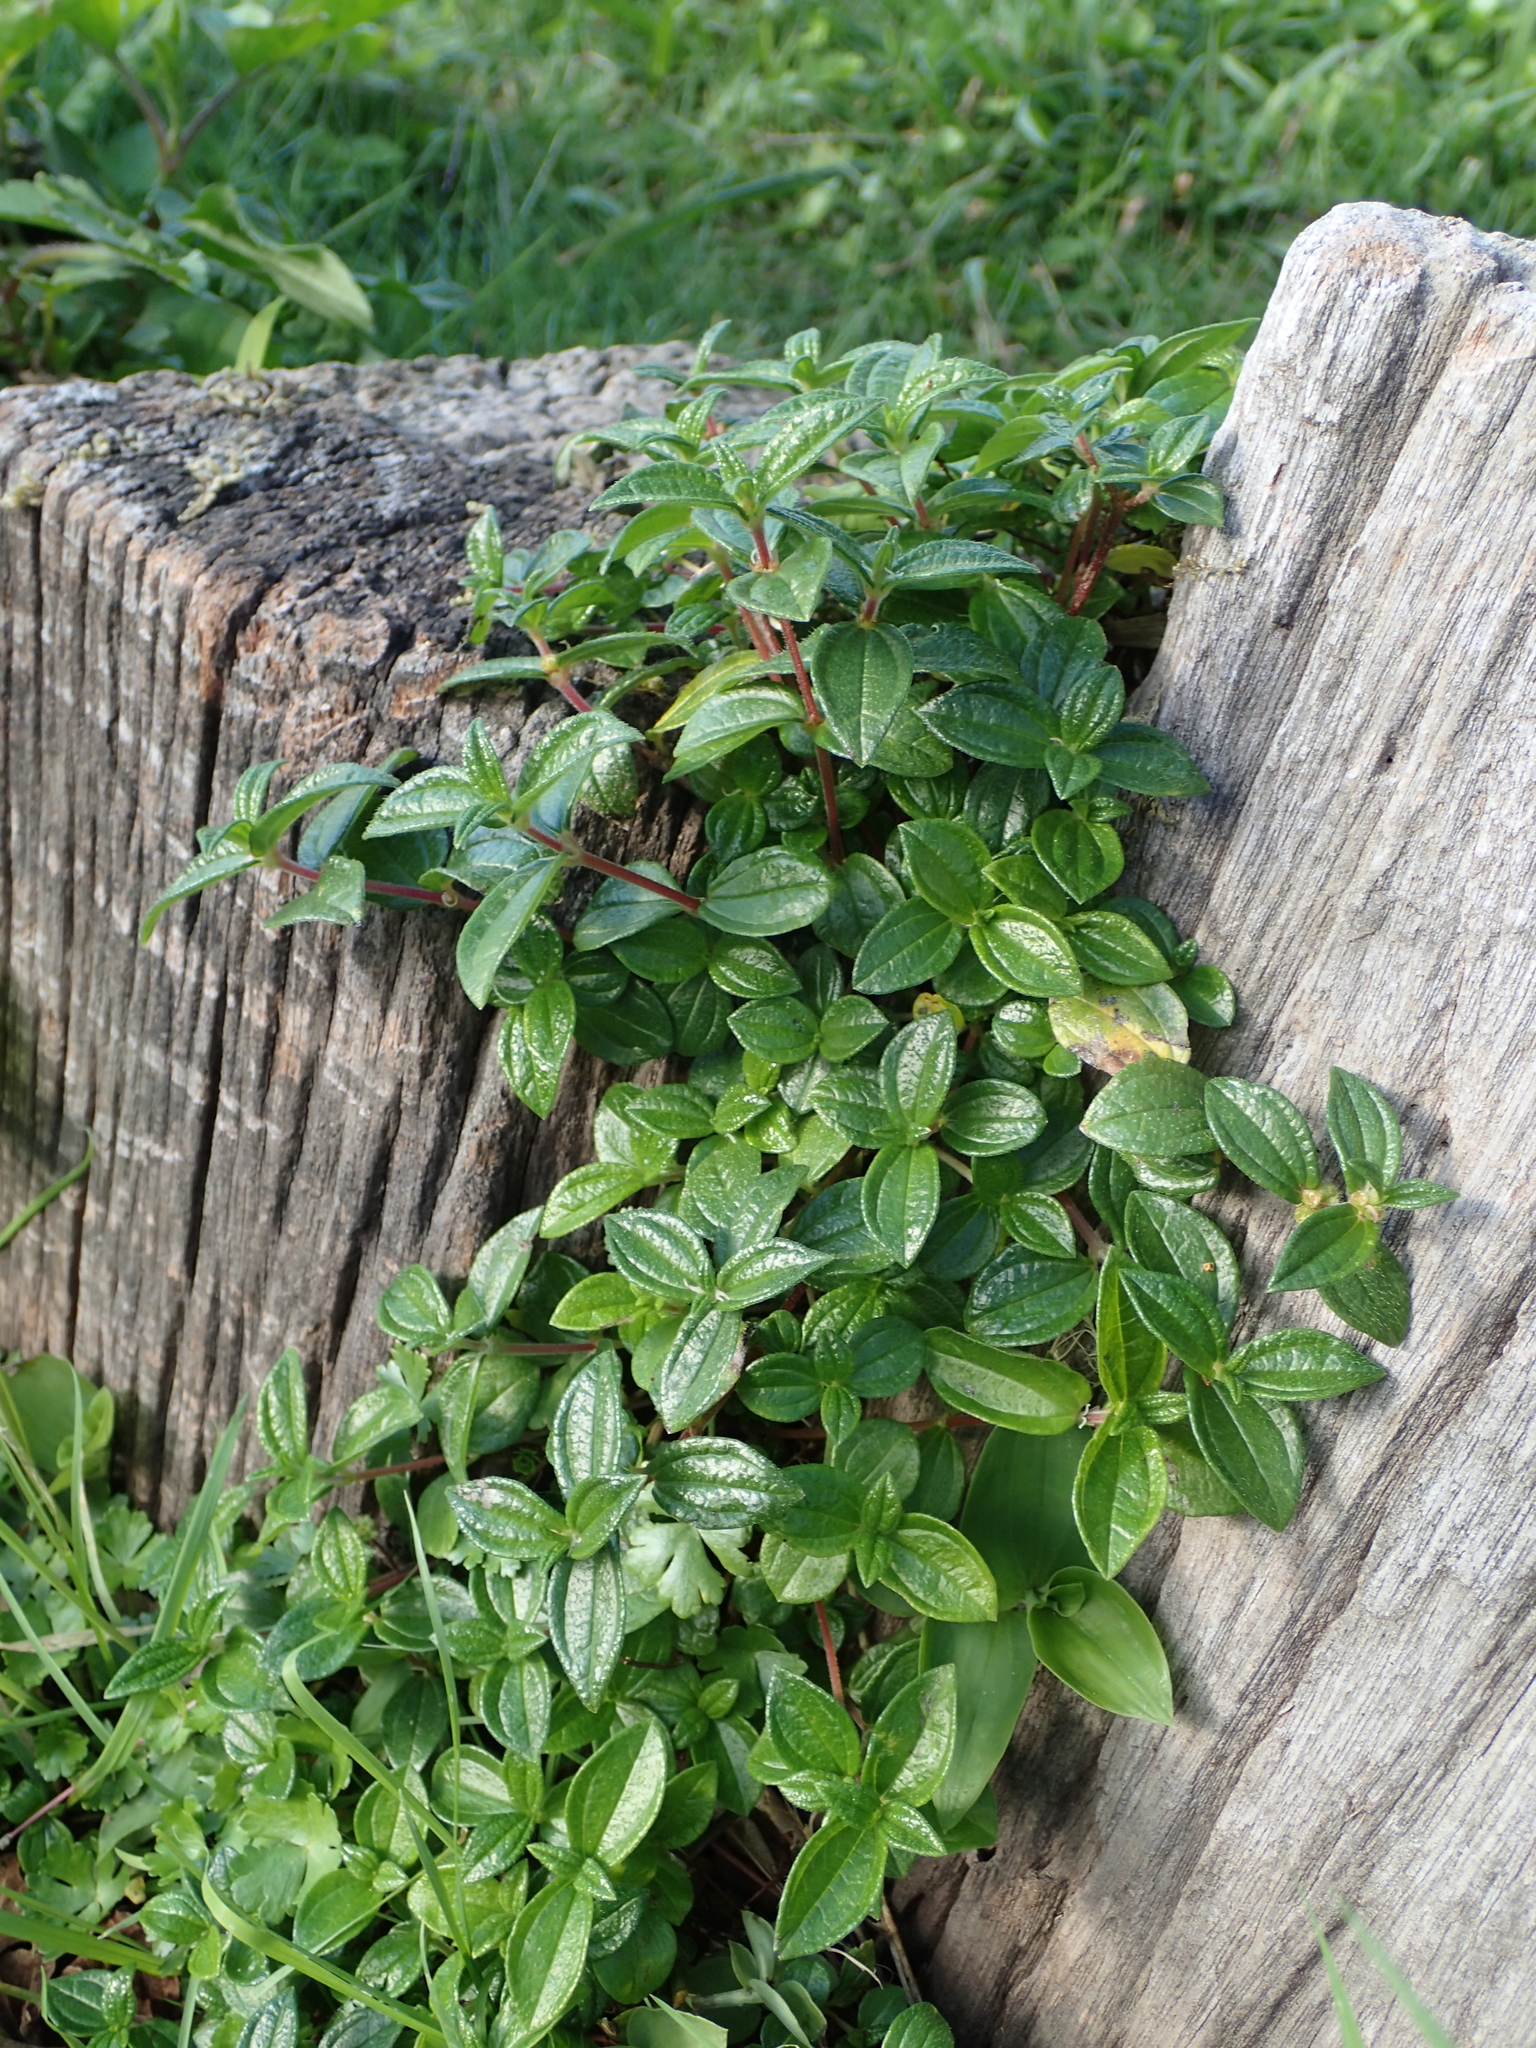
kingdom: Plantae
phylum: Tracheophyta
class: Magnoliopsida
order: Rosales
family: Urticaceae
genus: Gonostegia
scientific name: Gonostegia triandra
